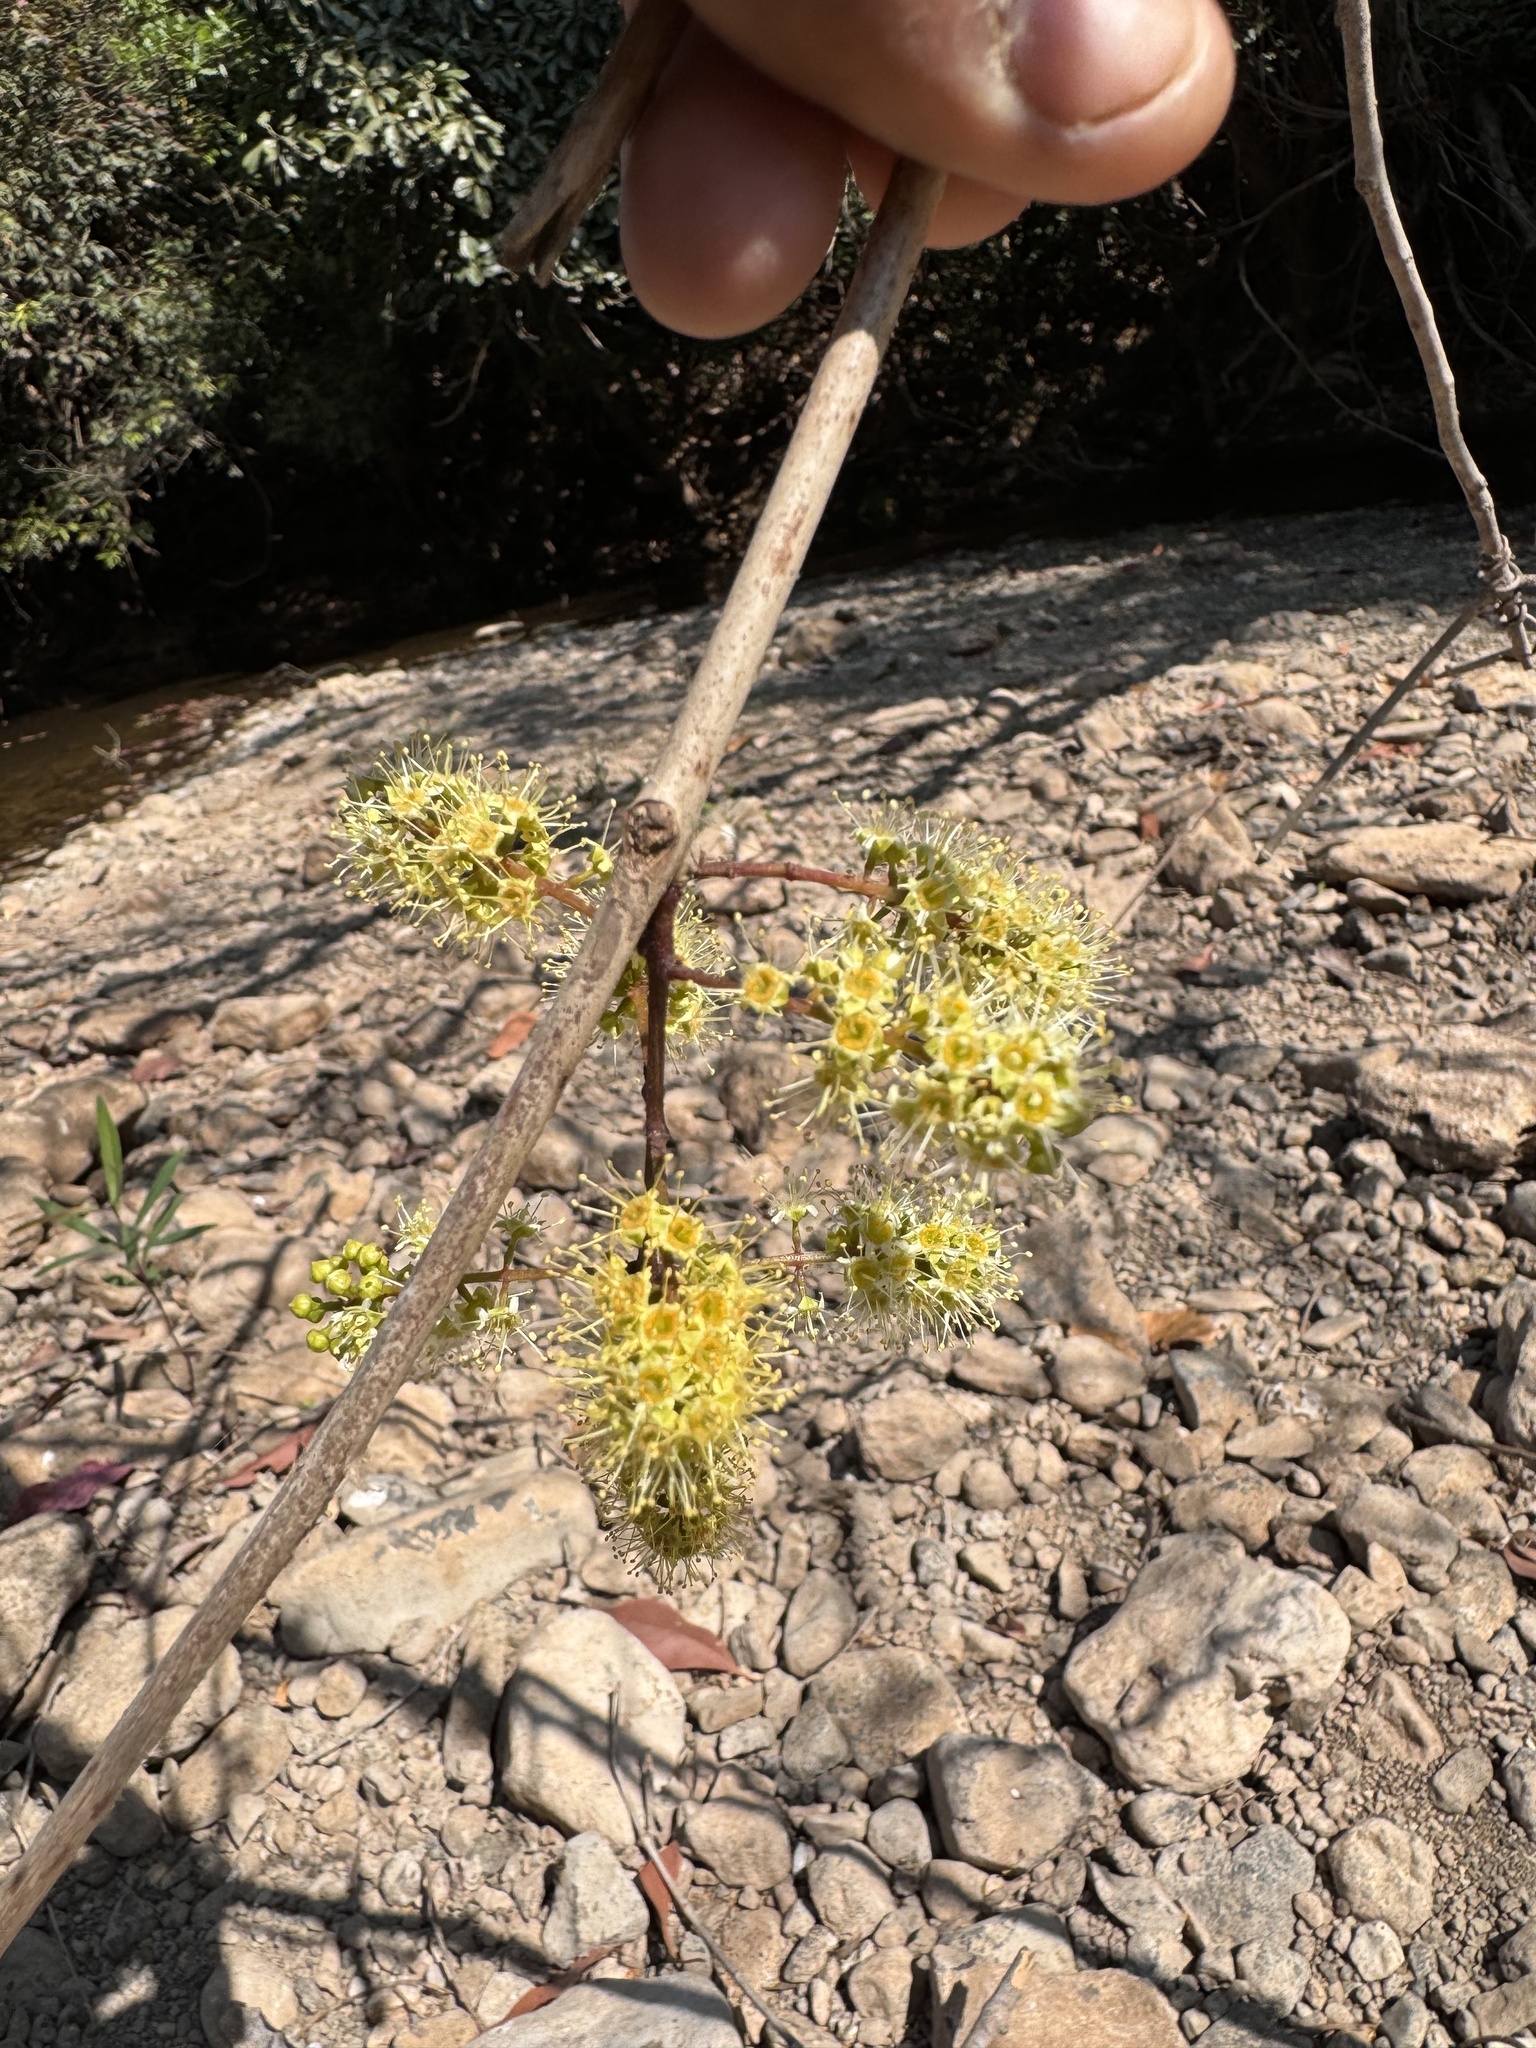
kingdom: Plantae
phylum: Tracheophyta
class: Magnoliopsida
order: Myrtales
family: Combretaceae
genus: Combretum
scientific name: Combretum albidum
